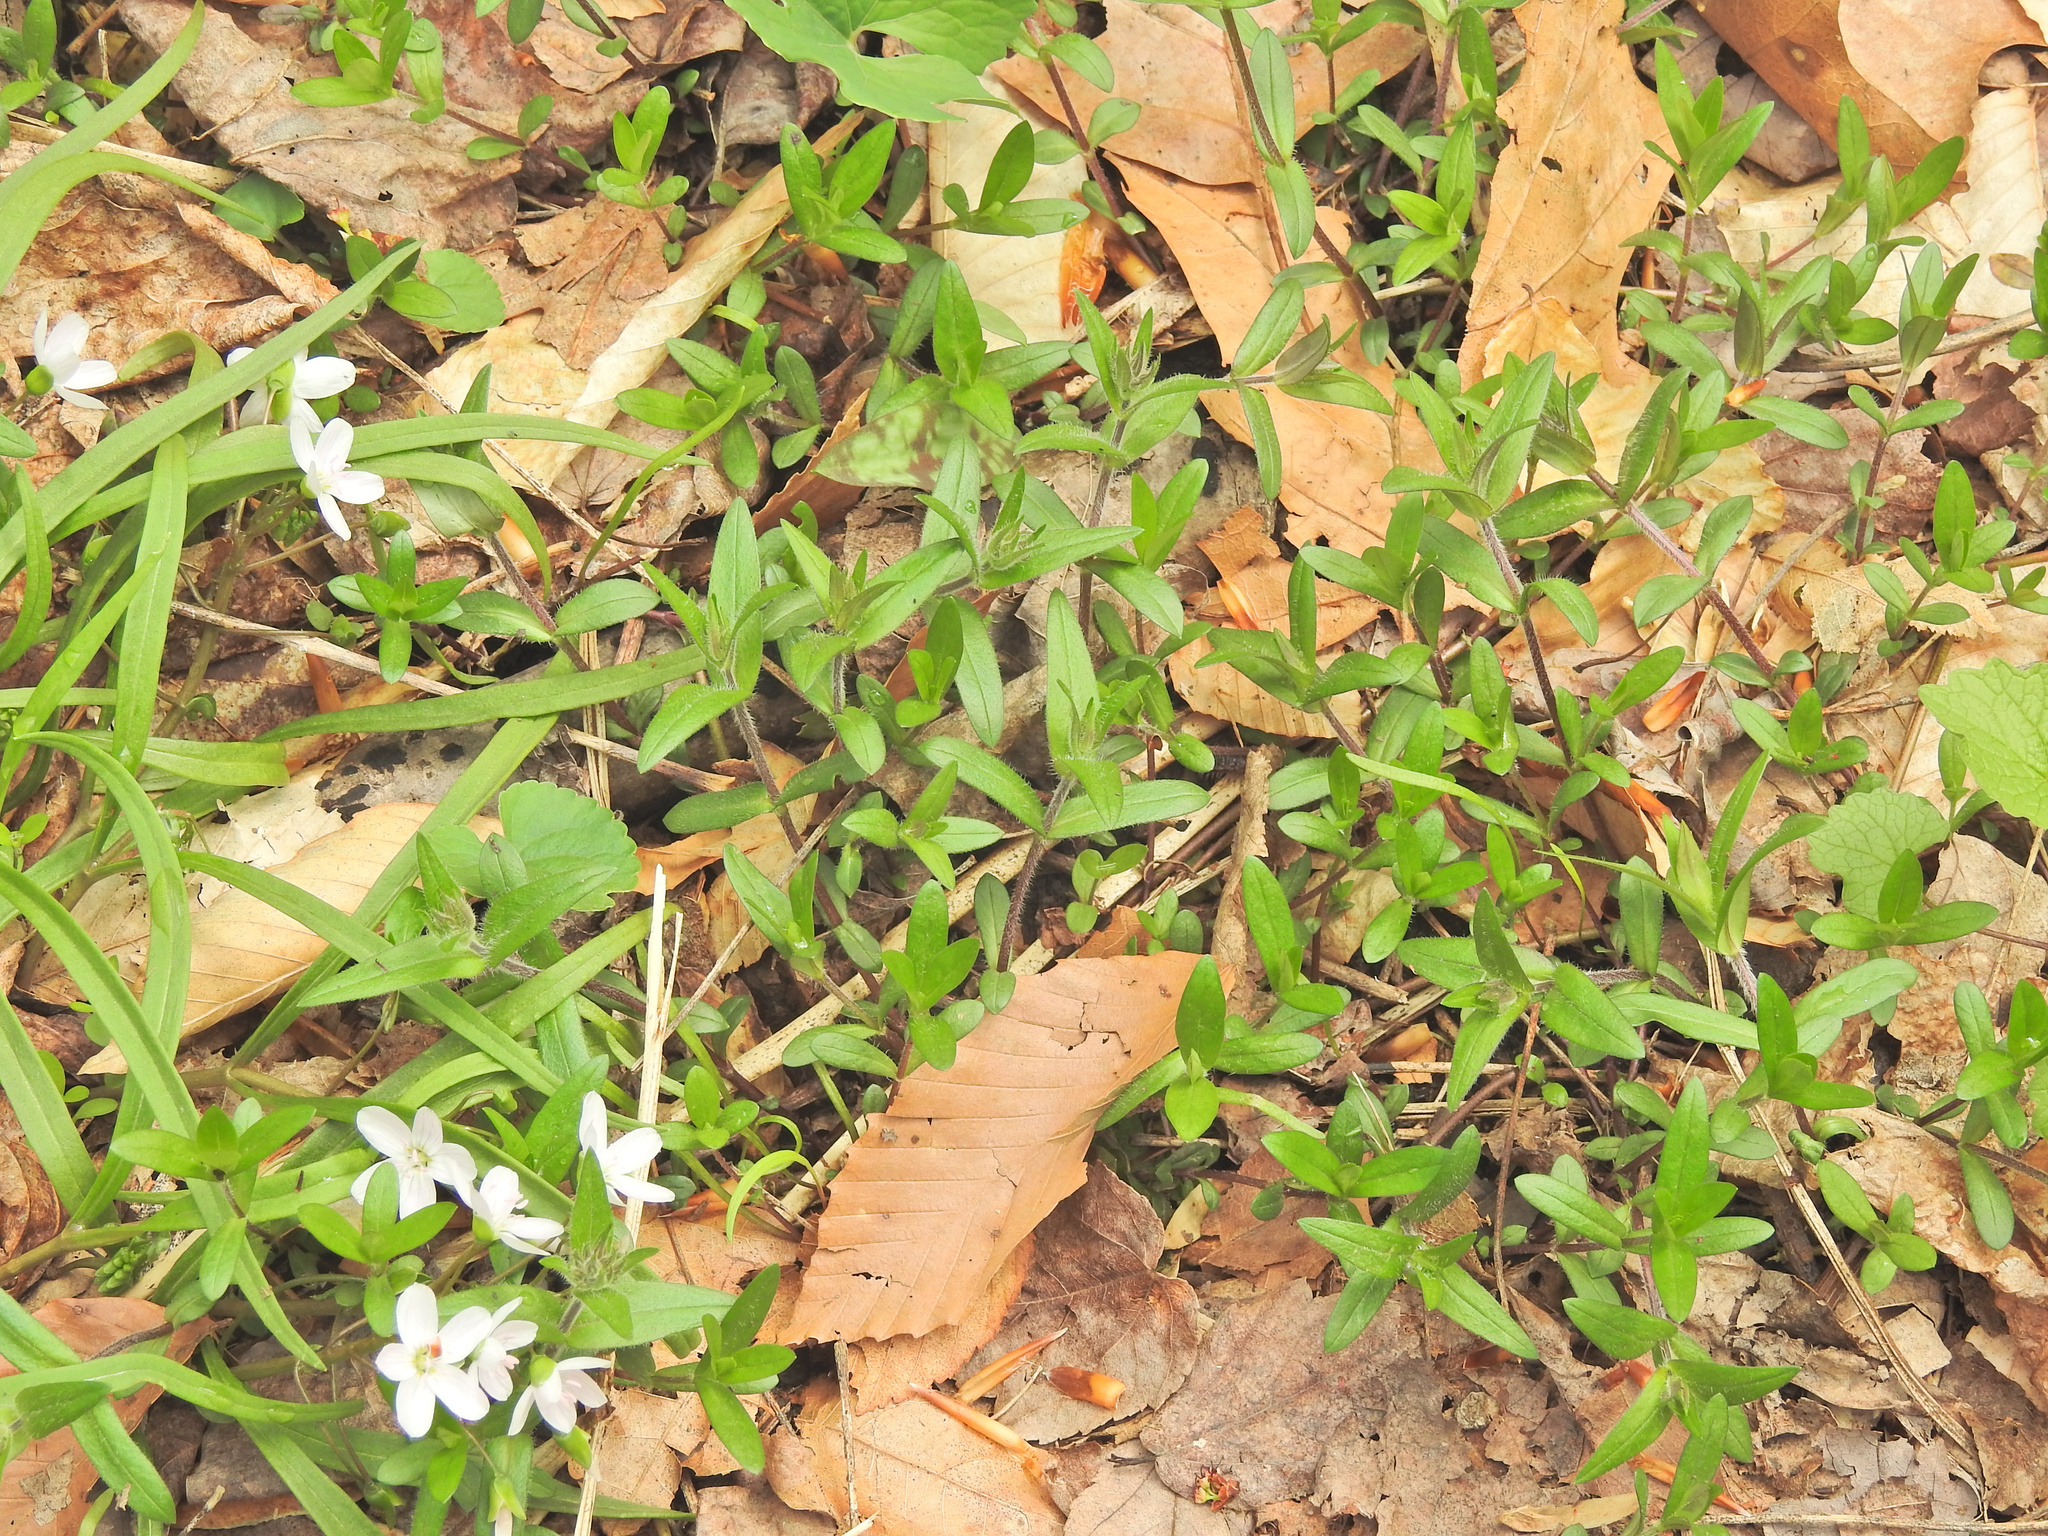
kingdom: Plantae
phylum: Tracheophyta
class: Magnoliopsida
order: Ericales
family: Polemoniaceae
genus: Phlox
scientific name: Phlox divaricata
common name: Blue phlox
